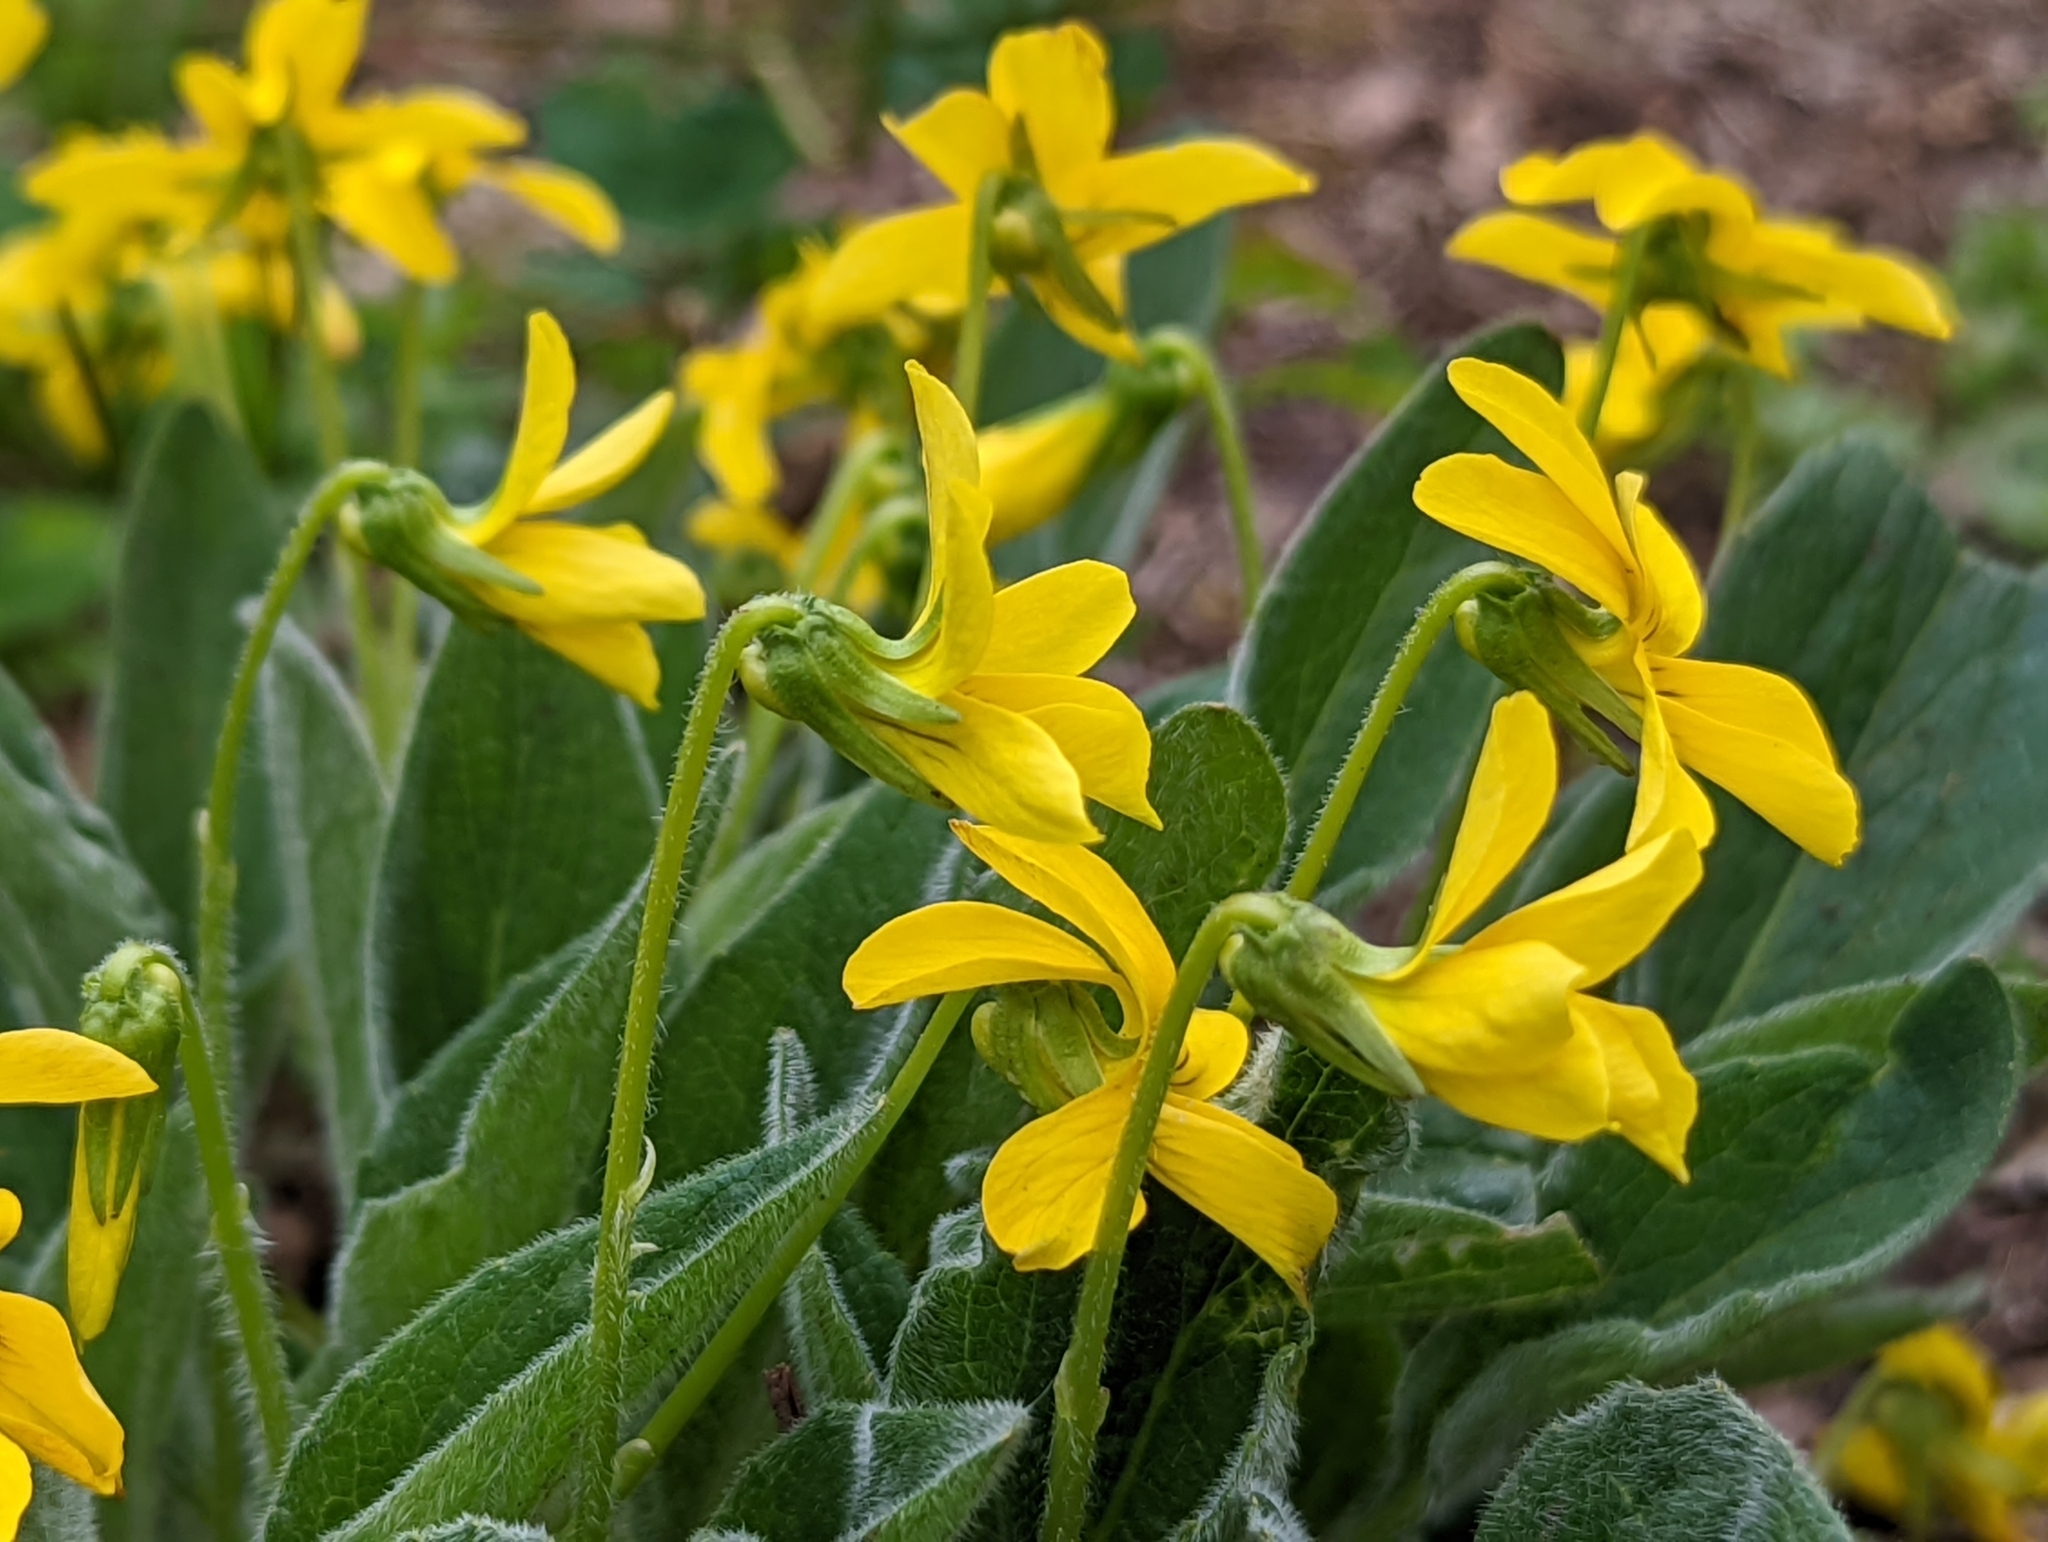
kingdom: Plantae
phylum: Tracheophyta
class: Magnoliopsida
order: Malpighiales
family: Violaceae
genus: Viola
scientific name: Viola praemorsa
